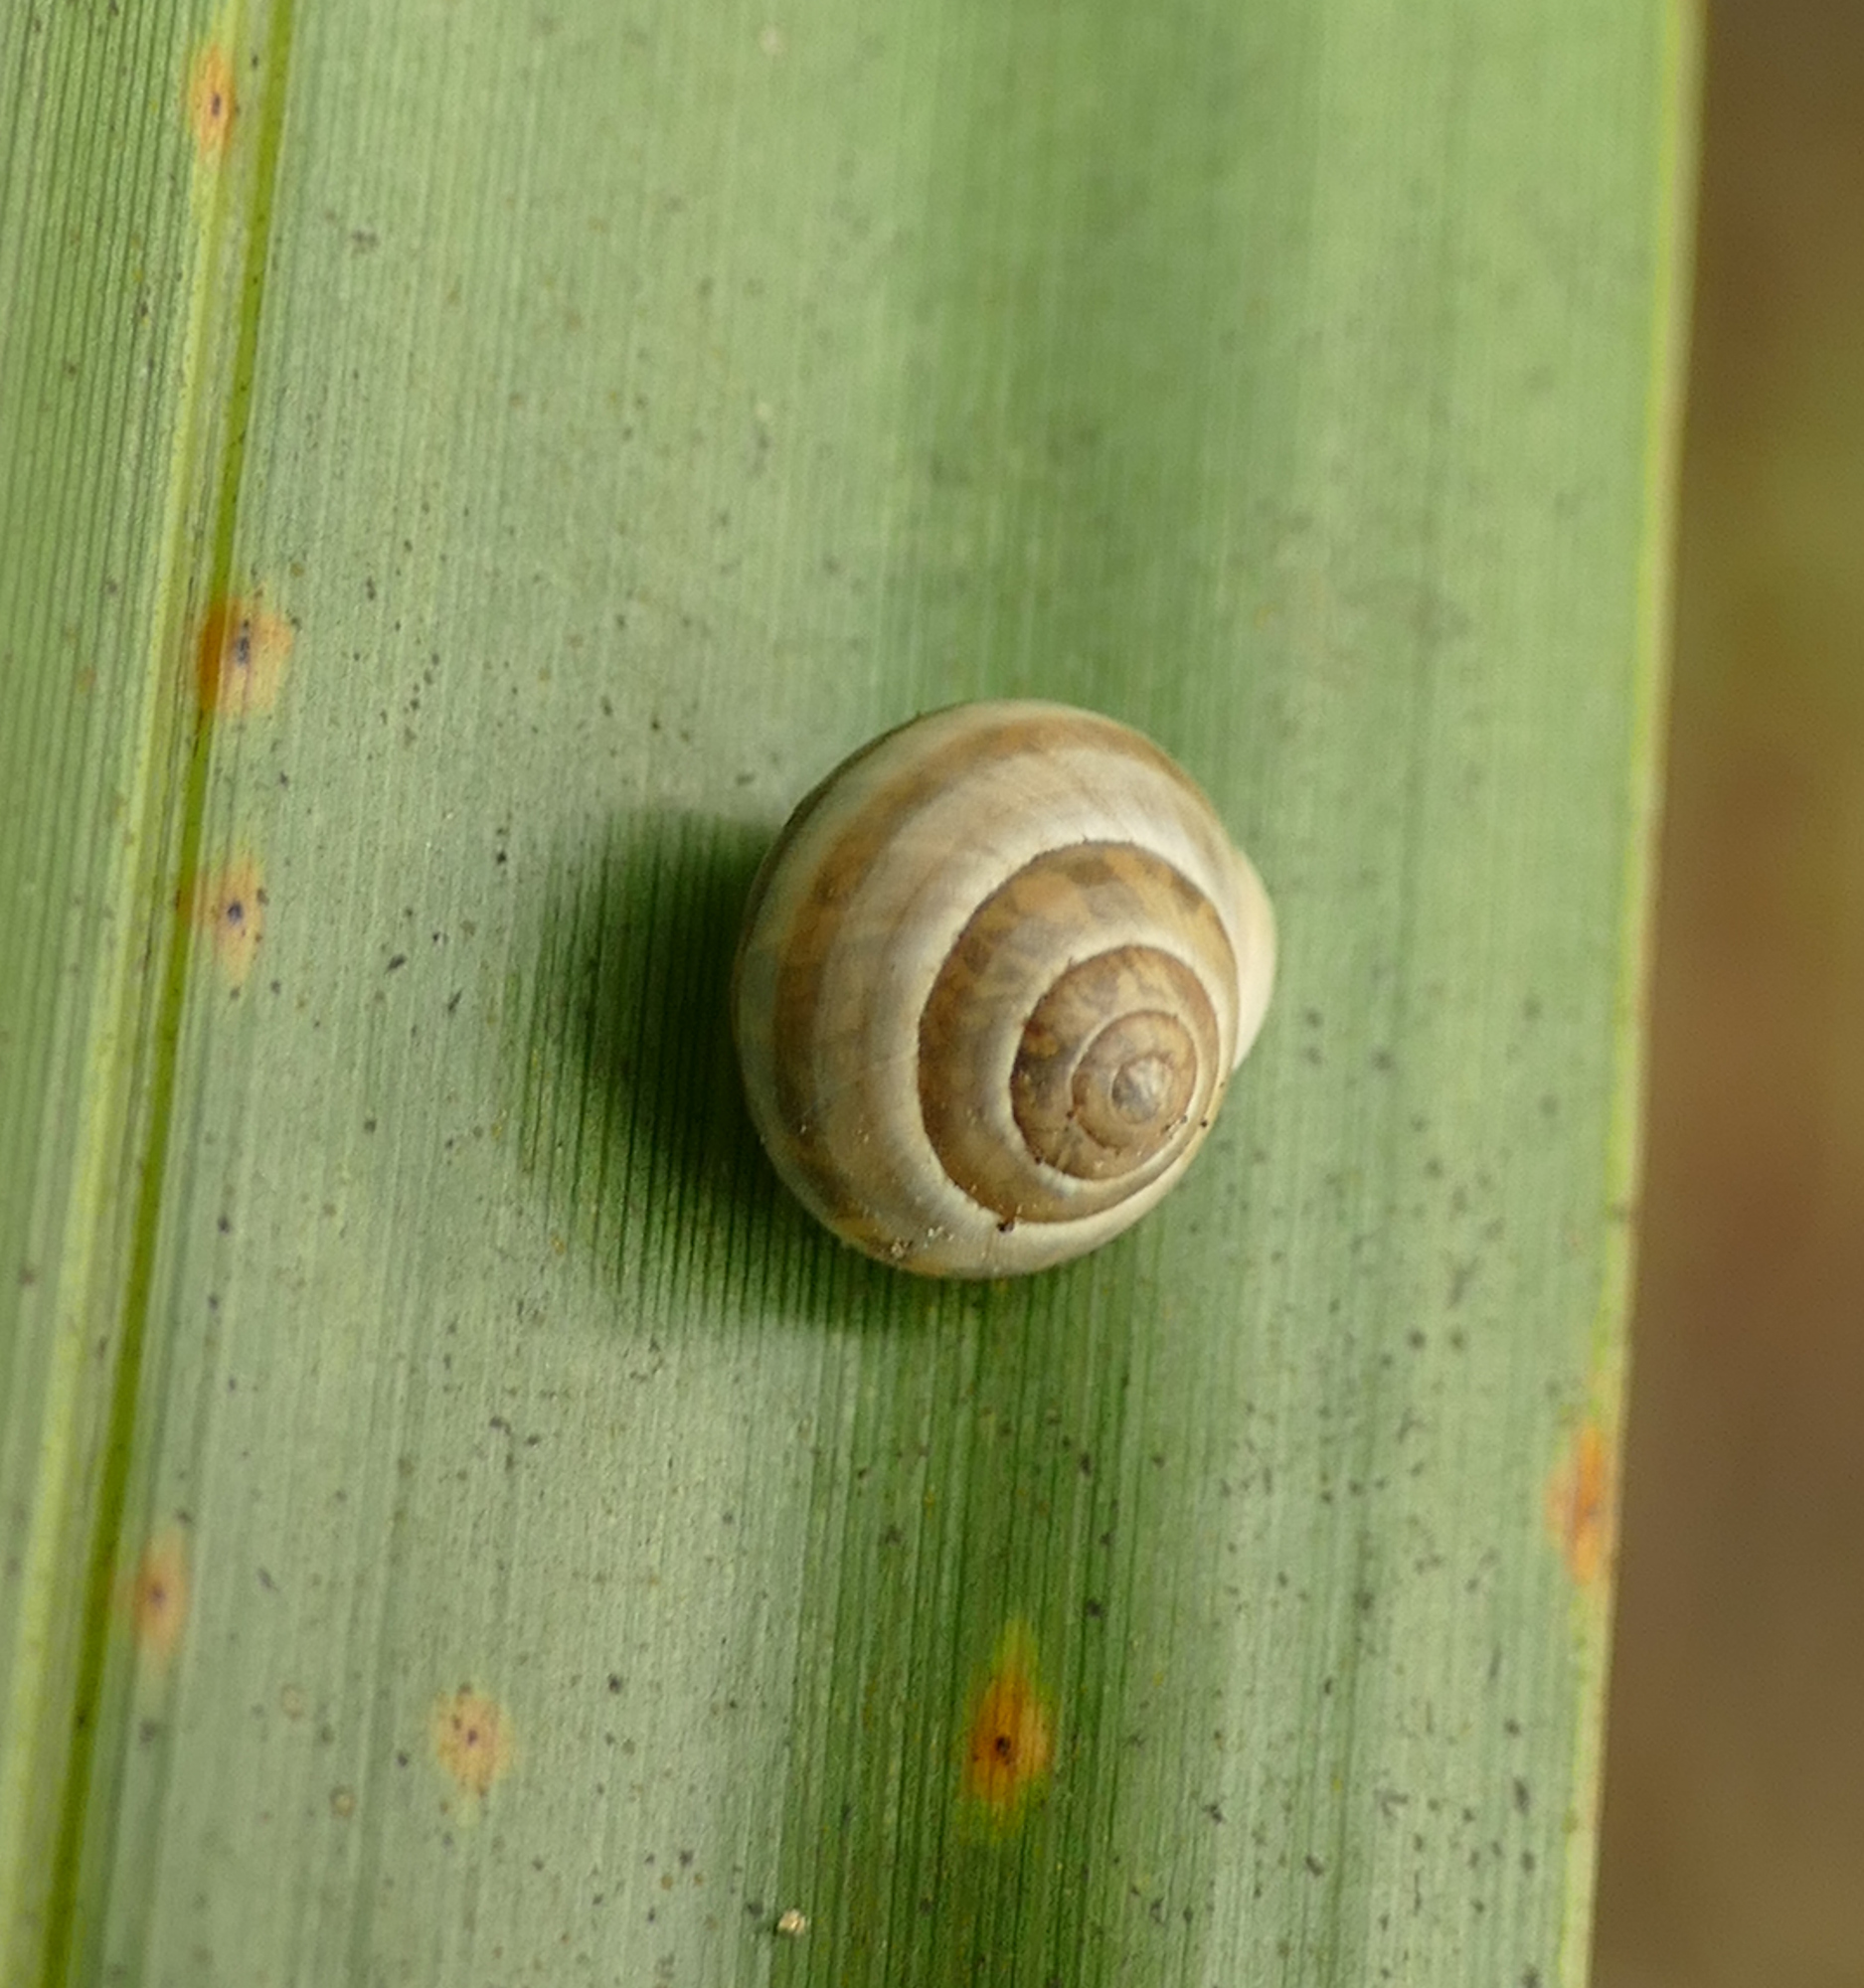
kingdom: Animalia
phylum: Mollusca
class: Gastropoda
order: Cycloneritida
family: Helicinidae
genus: Helicina
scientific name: Helicina orbiculata
